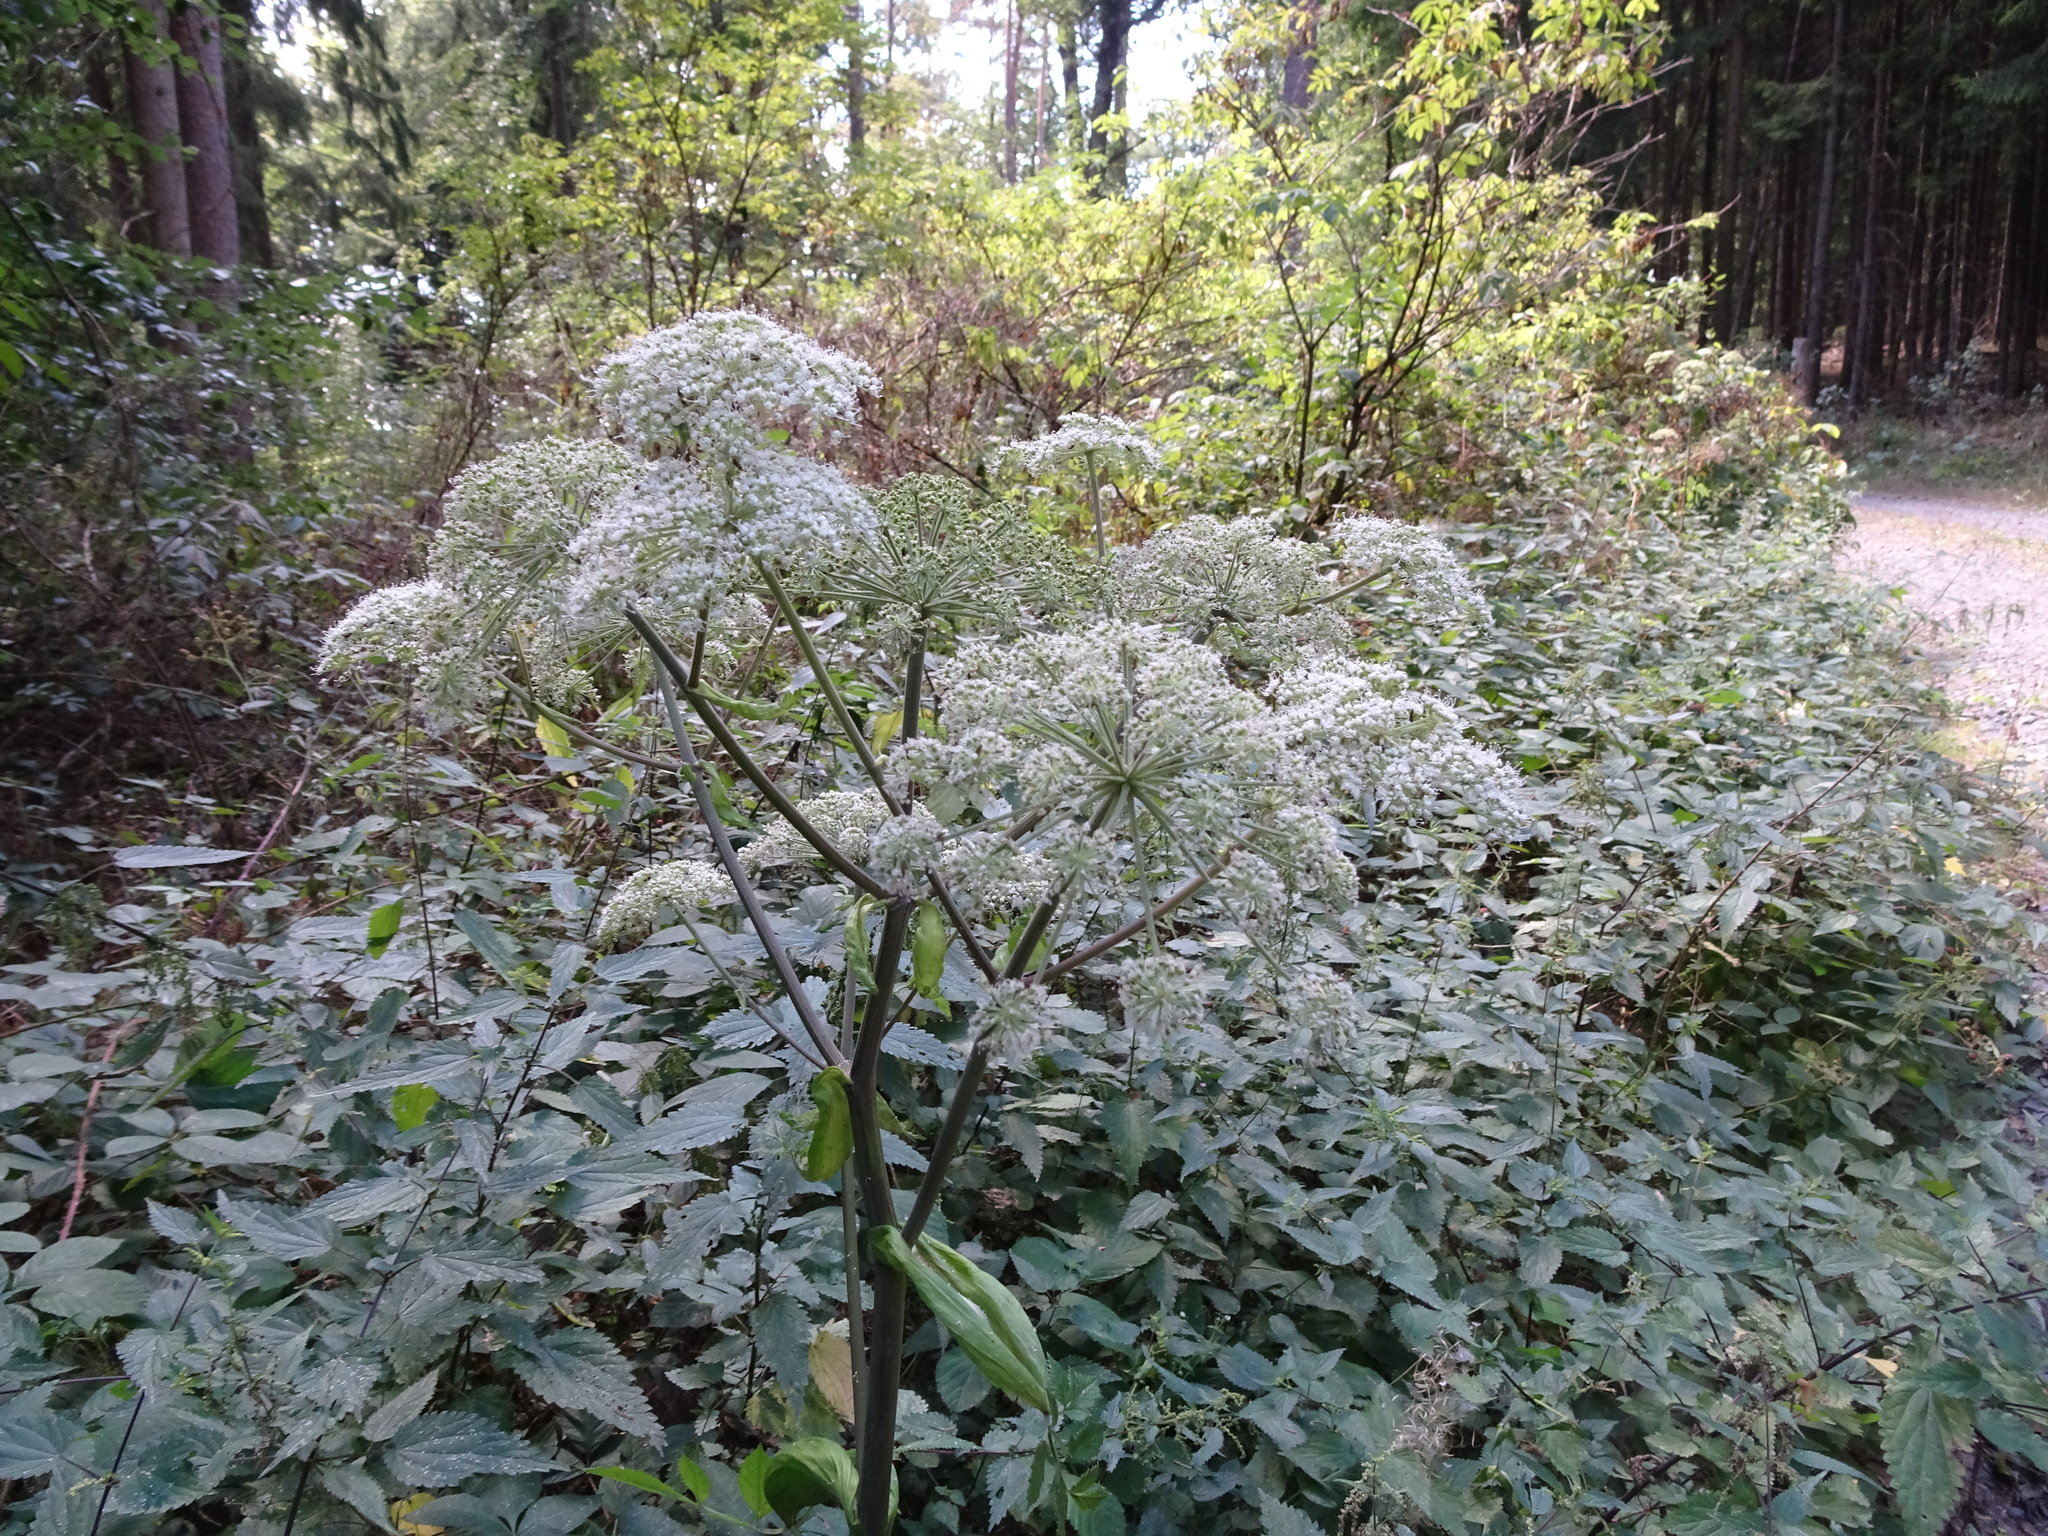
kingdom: Plantae
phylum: Tracheophyta
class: Magnoliopsida
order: Apiales
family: Apiaceae
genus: Angelica
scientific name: Angelica sylvestris
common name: Wild angelica
